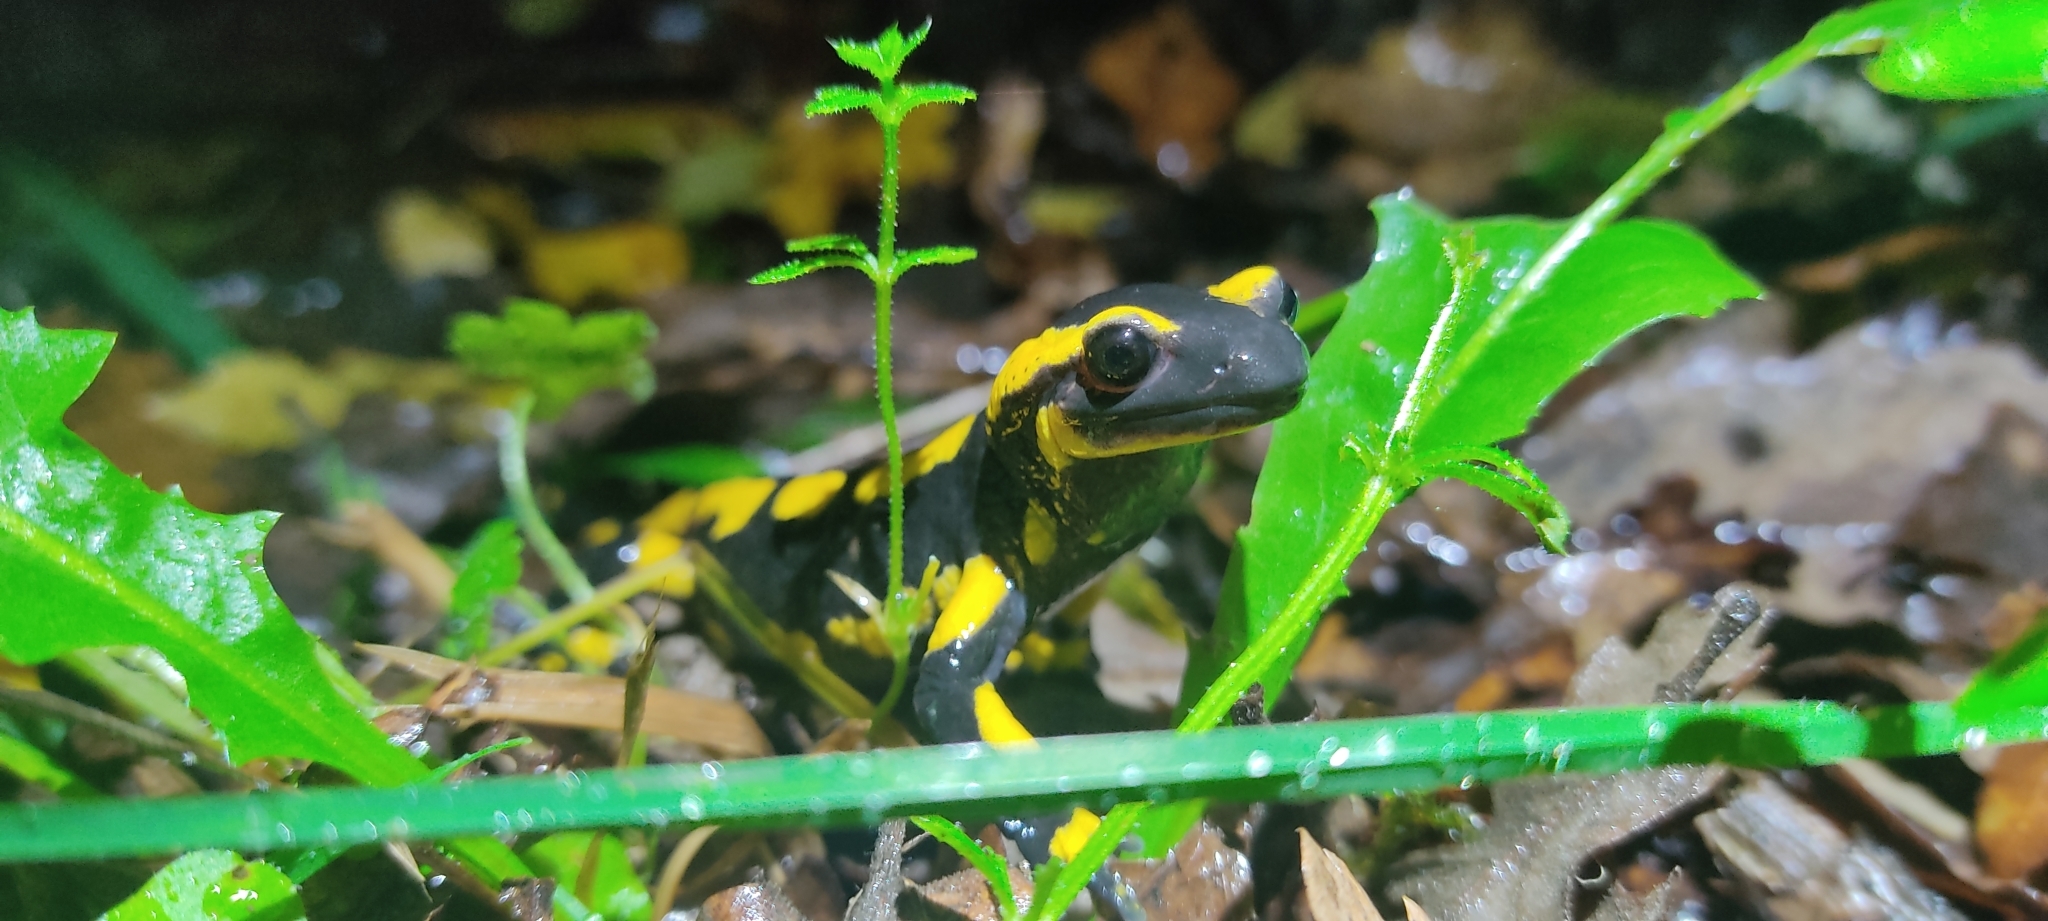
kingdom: Animalia
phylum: Chordata
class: Amphibia
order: Caudata
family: Salamandridae
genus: Salamandra
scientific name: Salamandra salamandra
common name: Fire salamander
